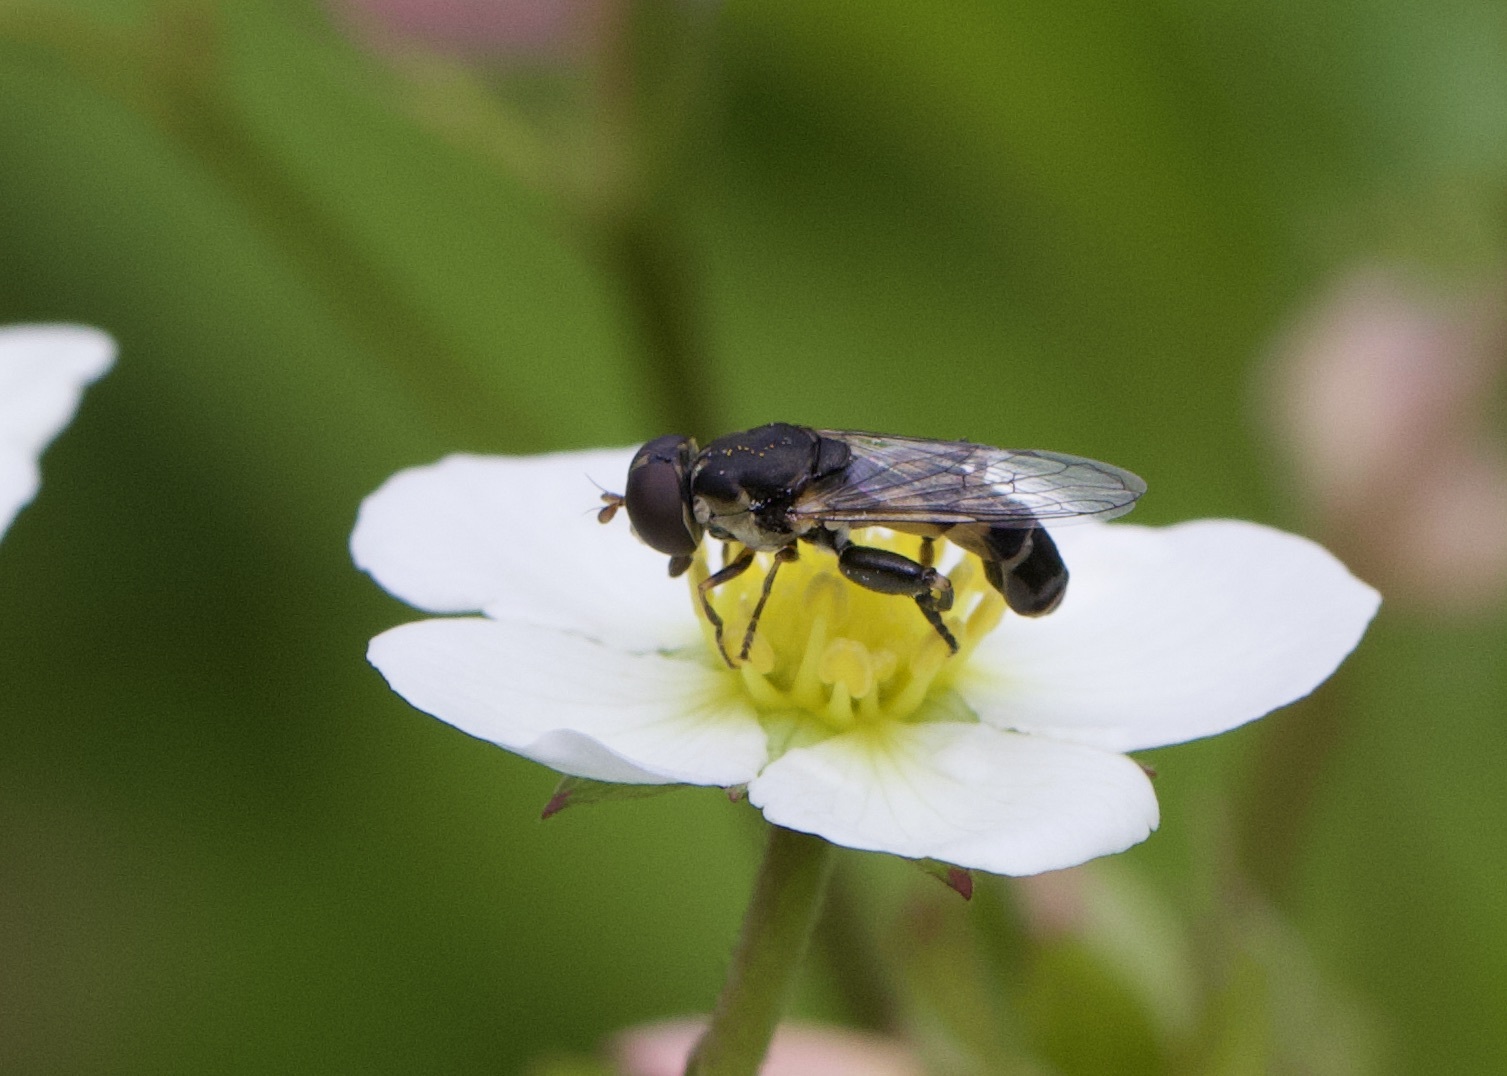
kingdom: Animalia
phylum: Arthropoda
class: Insecta
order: Diptera
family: Syrphidae
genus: Syritta
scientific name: Syritta pipiens
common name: Hover fly
